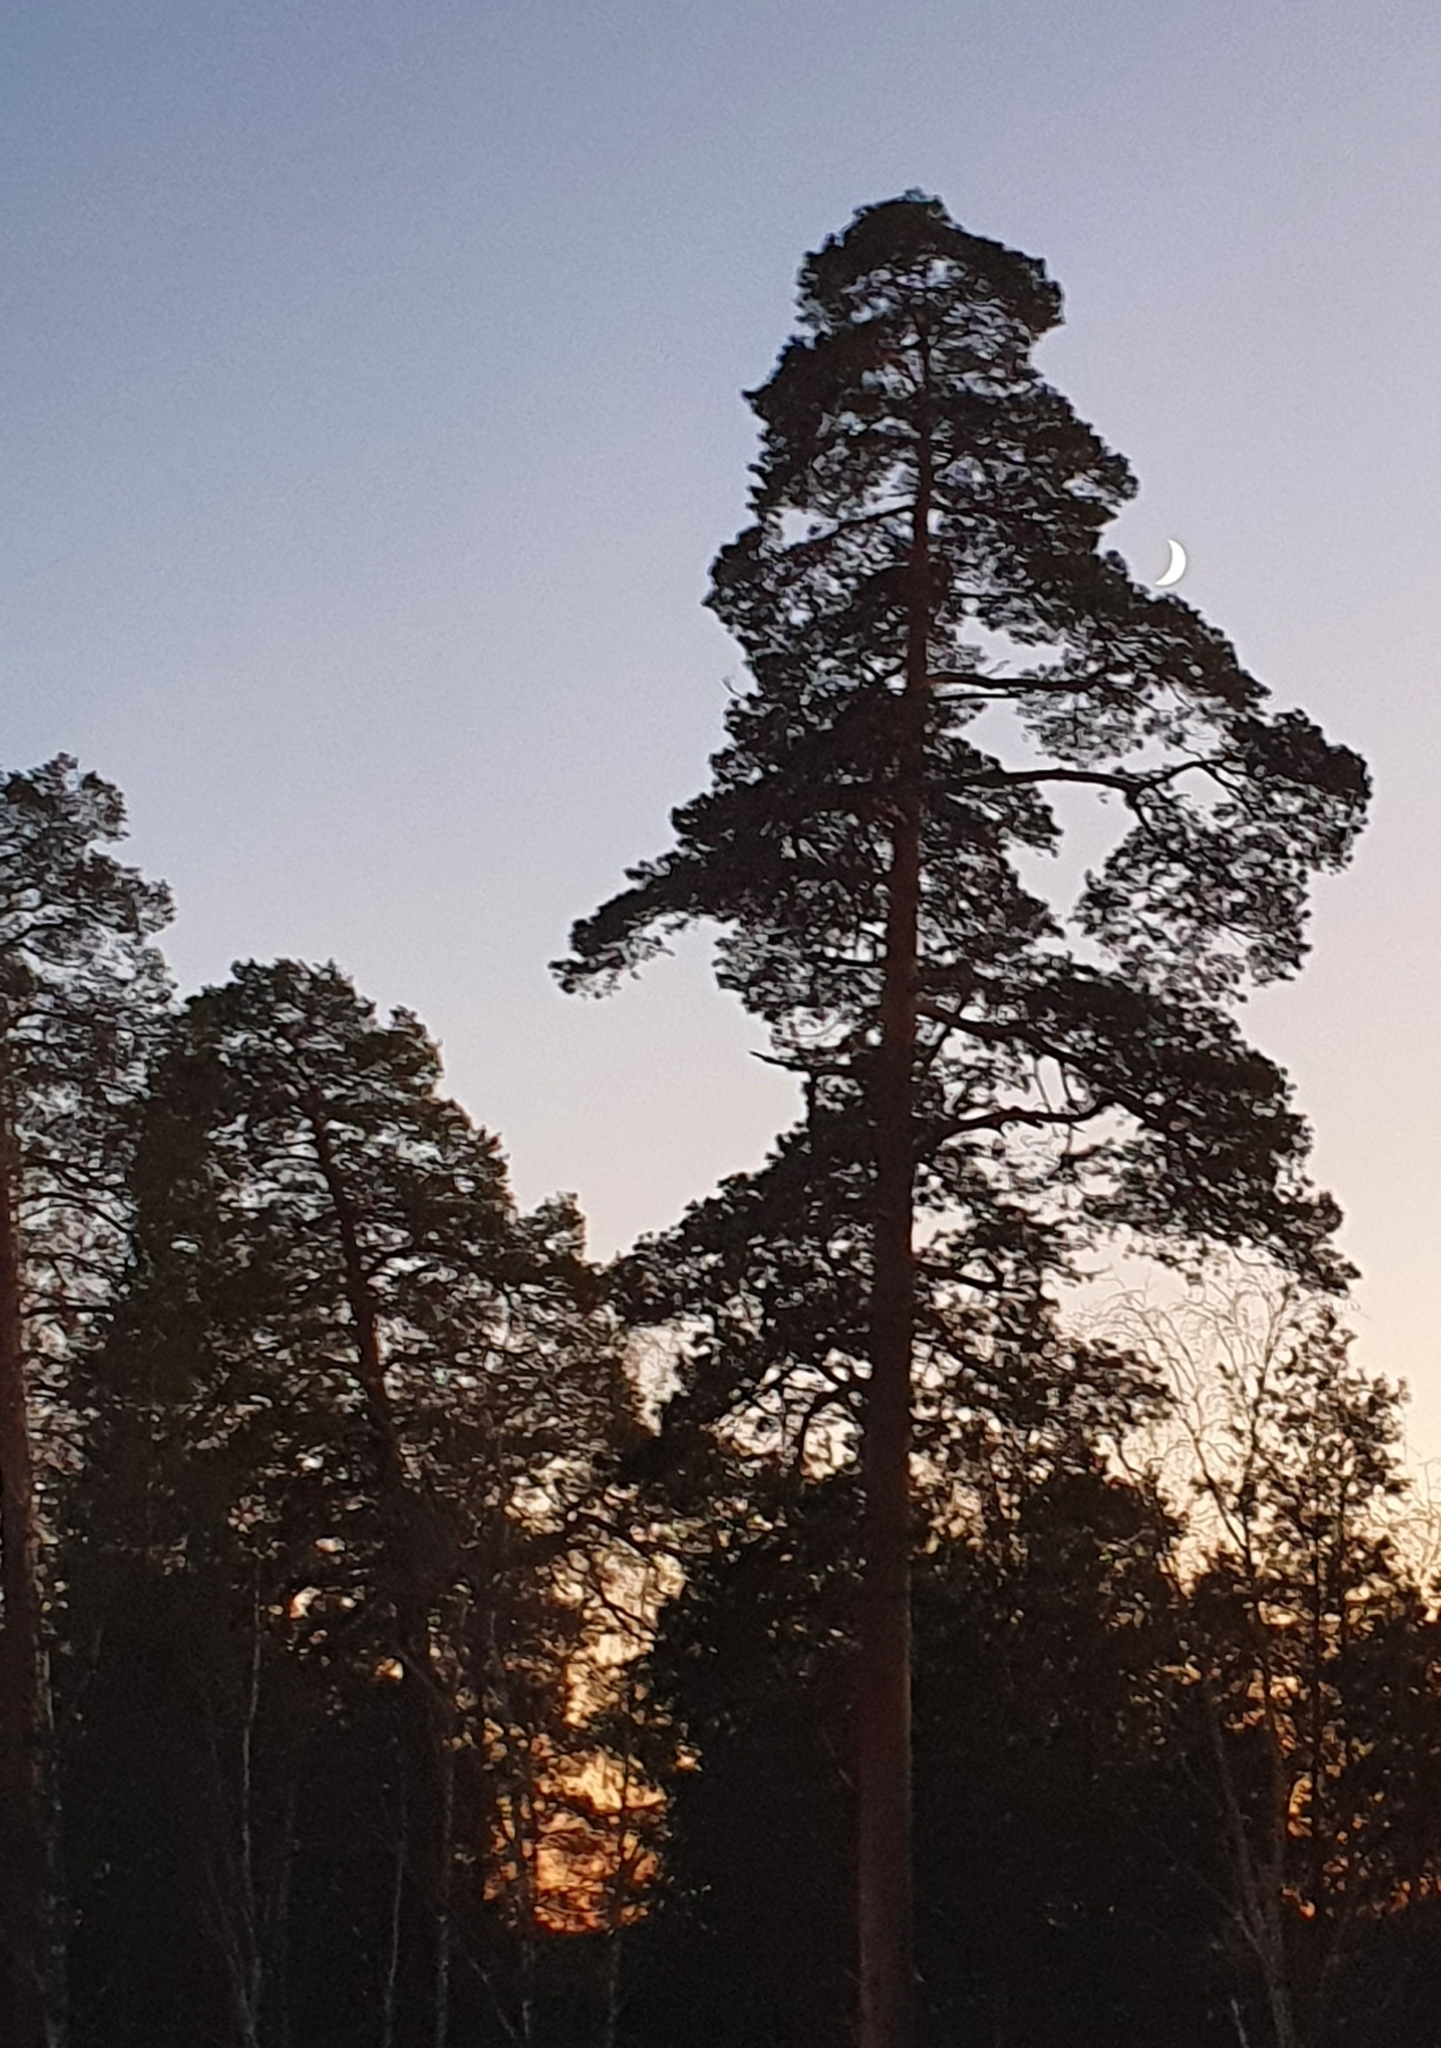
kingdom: Plantae
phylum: Tracheophyta
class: Pinopsida
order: Pinales
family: Pinaceae
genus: Pinus
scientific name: Pinus sylvestris
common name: Scots pine
